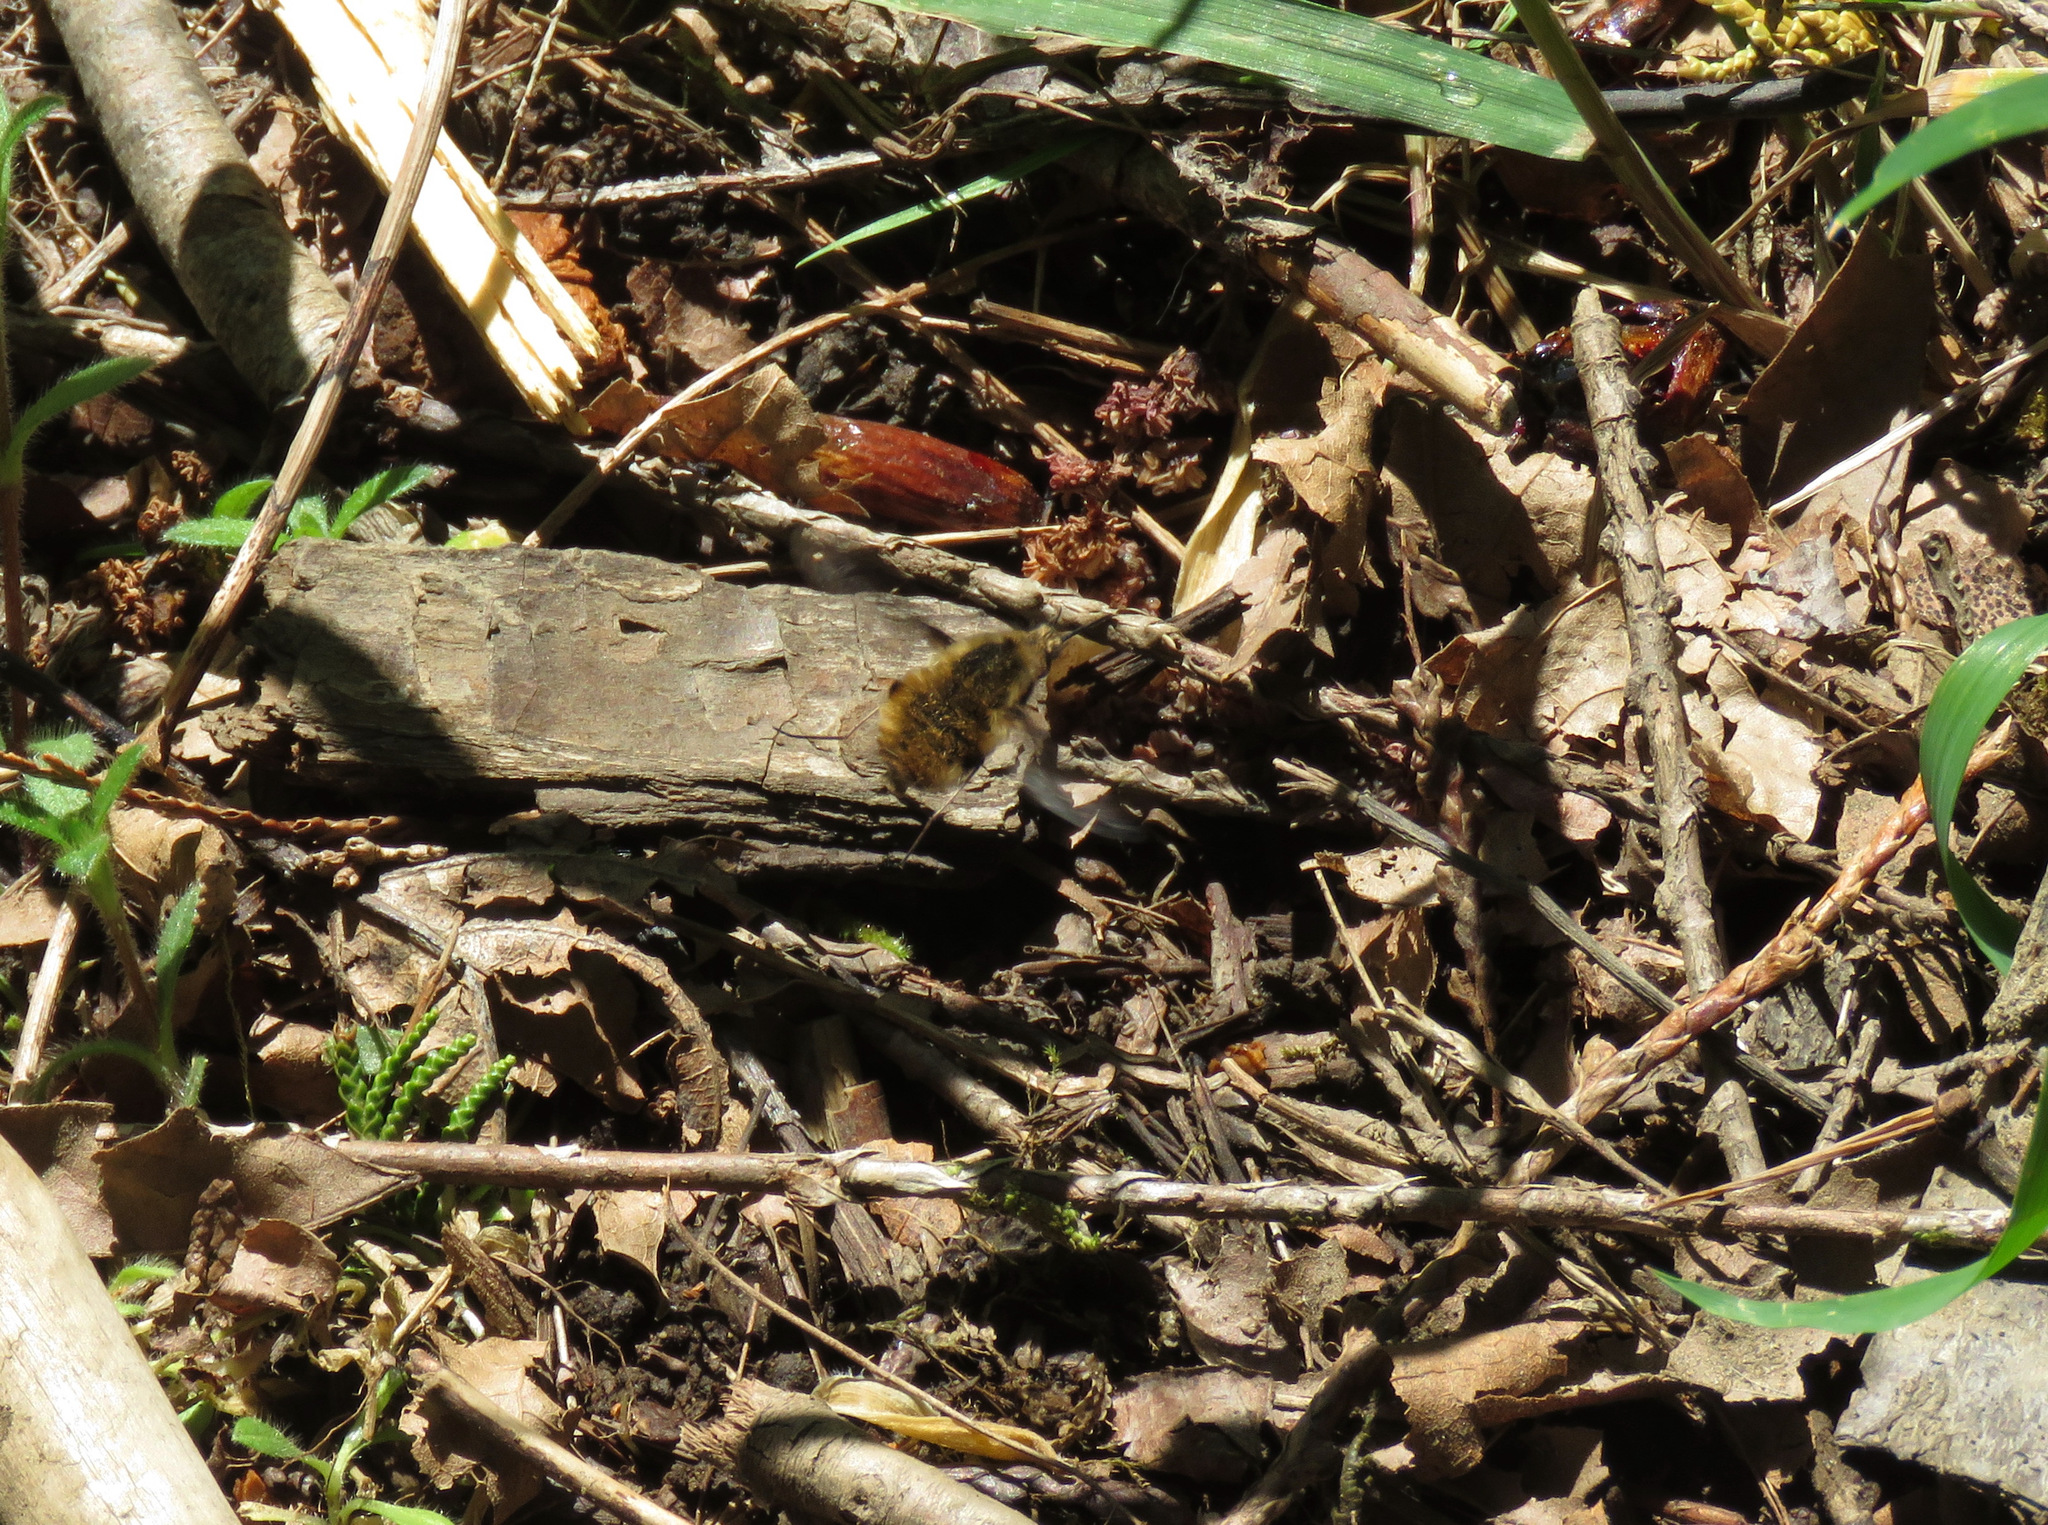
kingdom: Animalia
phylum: Arthropoda
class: Insecta
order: Diptera
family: Bombyliidae
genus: Bombylius
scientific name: Bombylius major
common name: Bee fly
